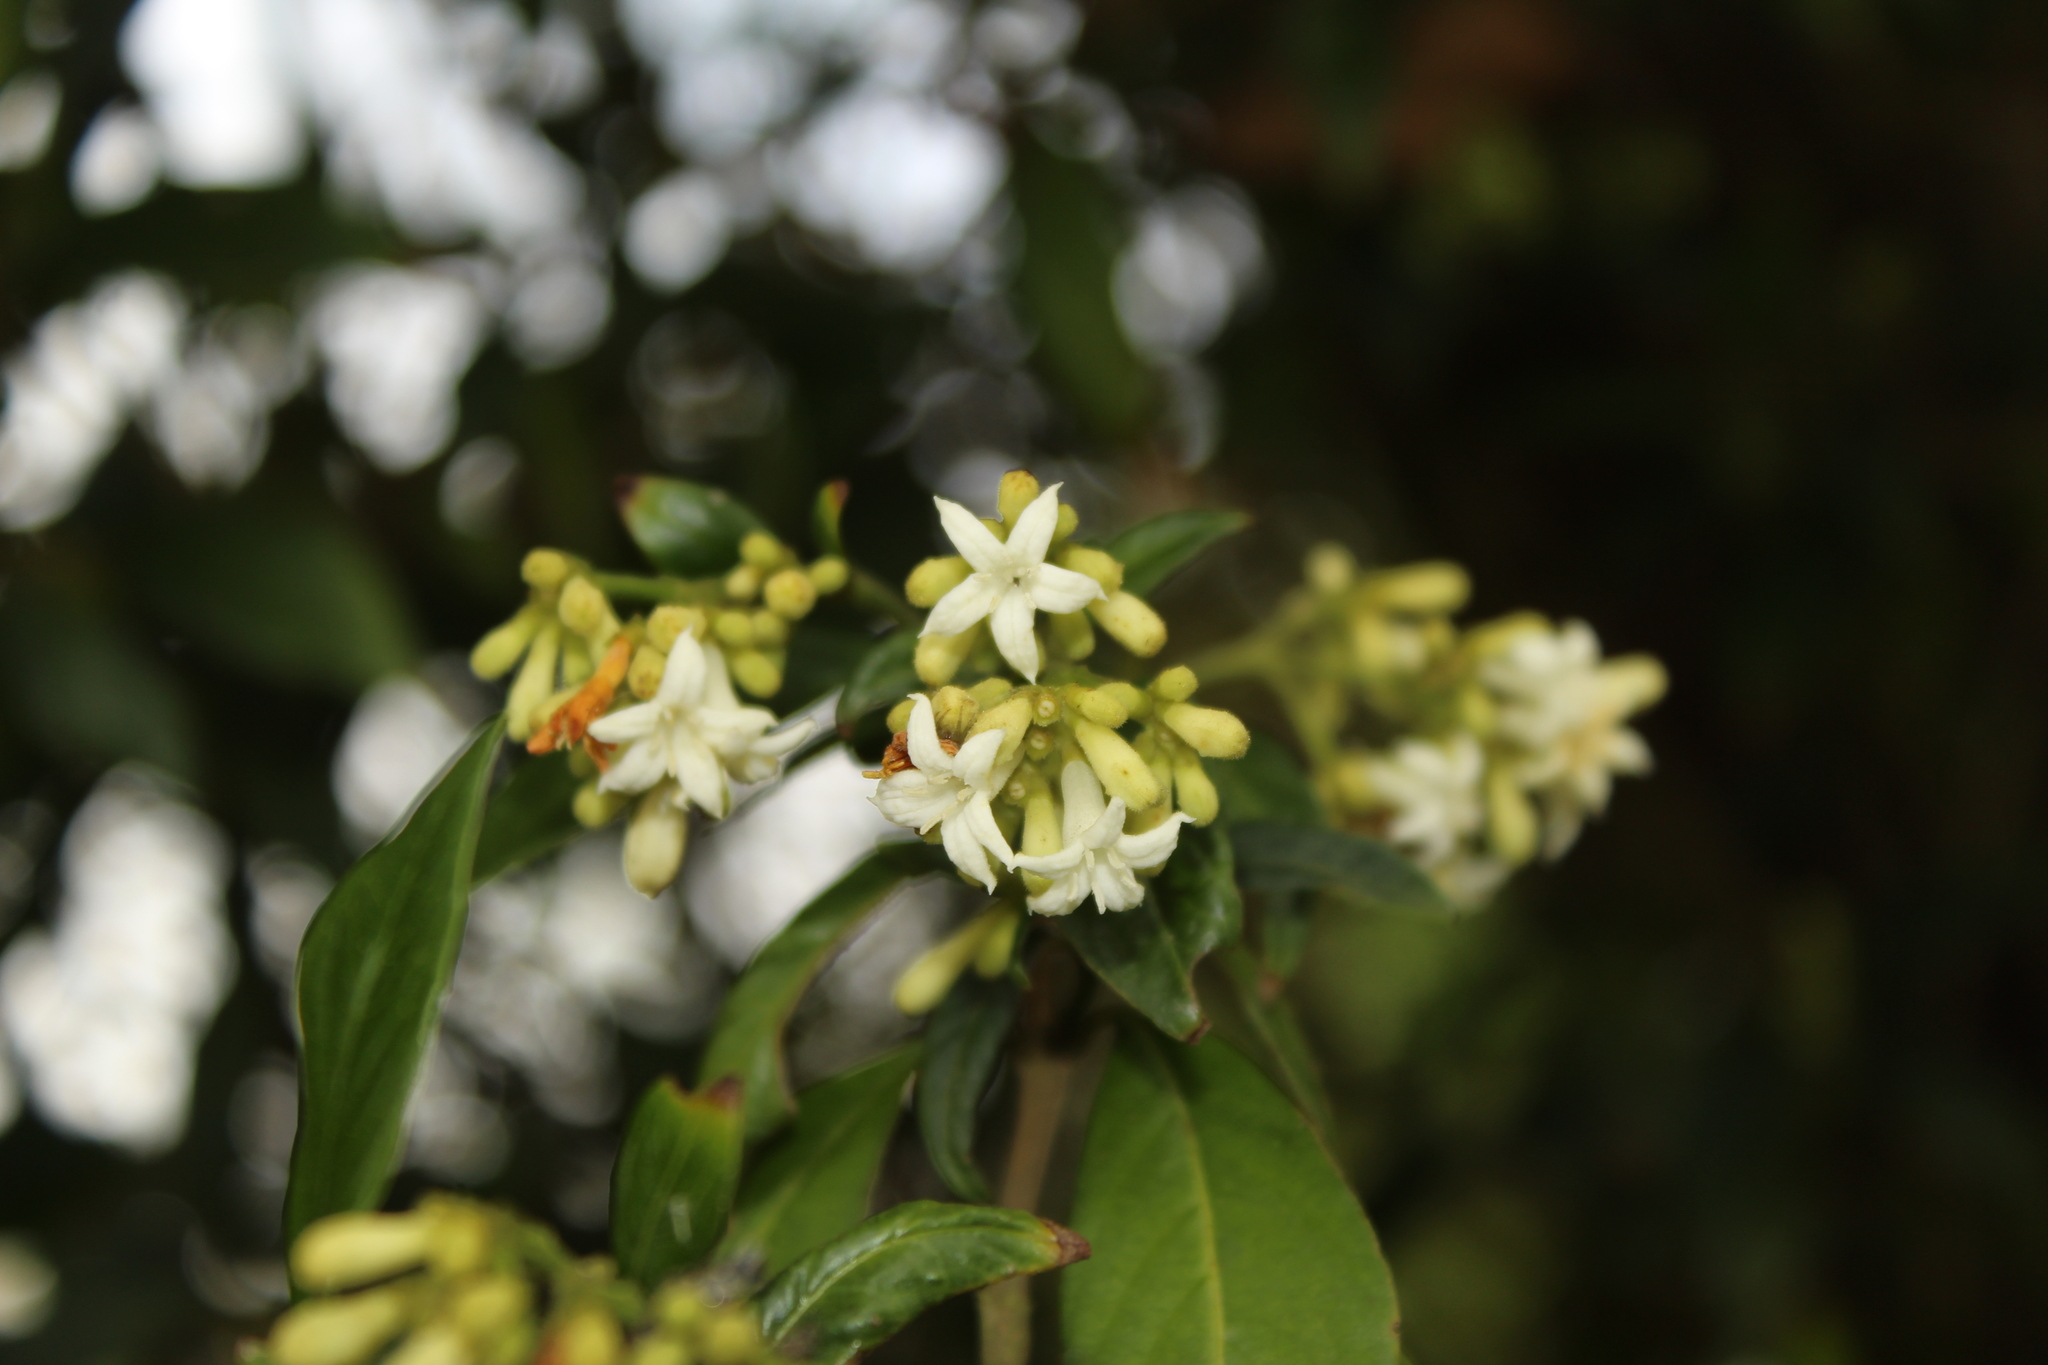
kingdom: Plantae
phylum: Tracheophyta
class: Magnoliopsida
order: Gentianales
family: Rubiaceae
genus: Palicourea
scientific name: Palicourea gonzaleziana
